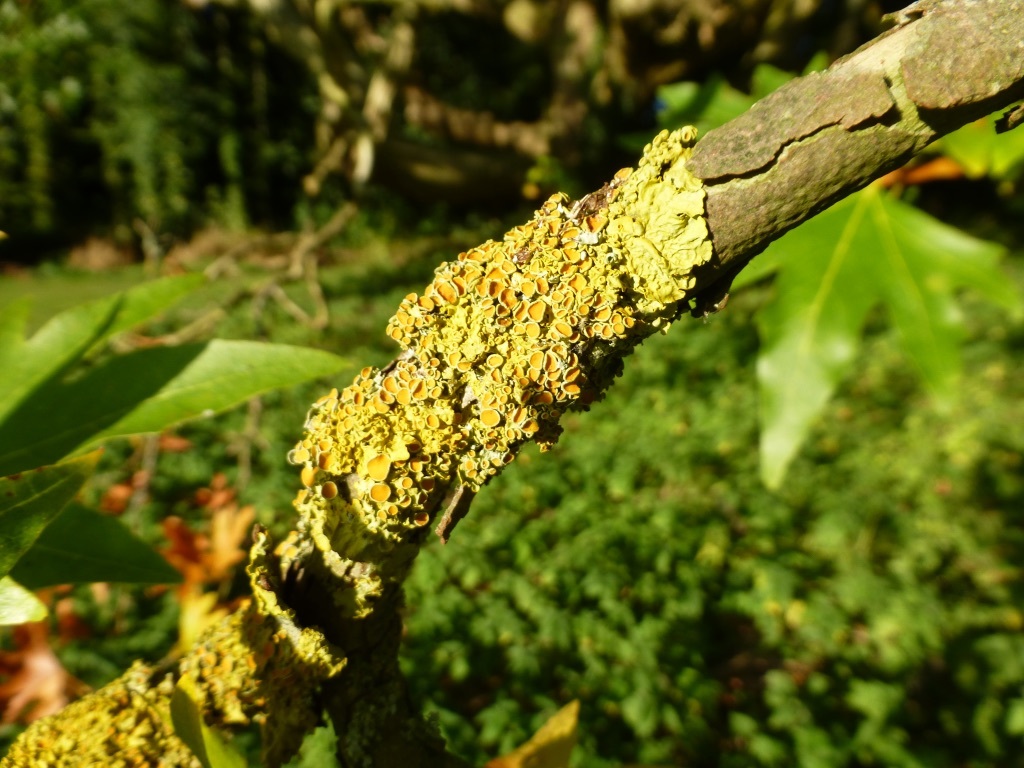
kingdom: Fungi
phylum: Ascomycota
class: Lecanoromycetes
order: Teloschistales
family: Teloschistaceae
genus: Xanthoria
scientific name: Xanthoria parietina
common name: Common orange lichen
